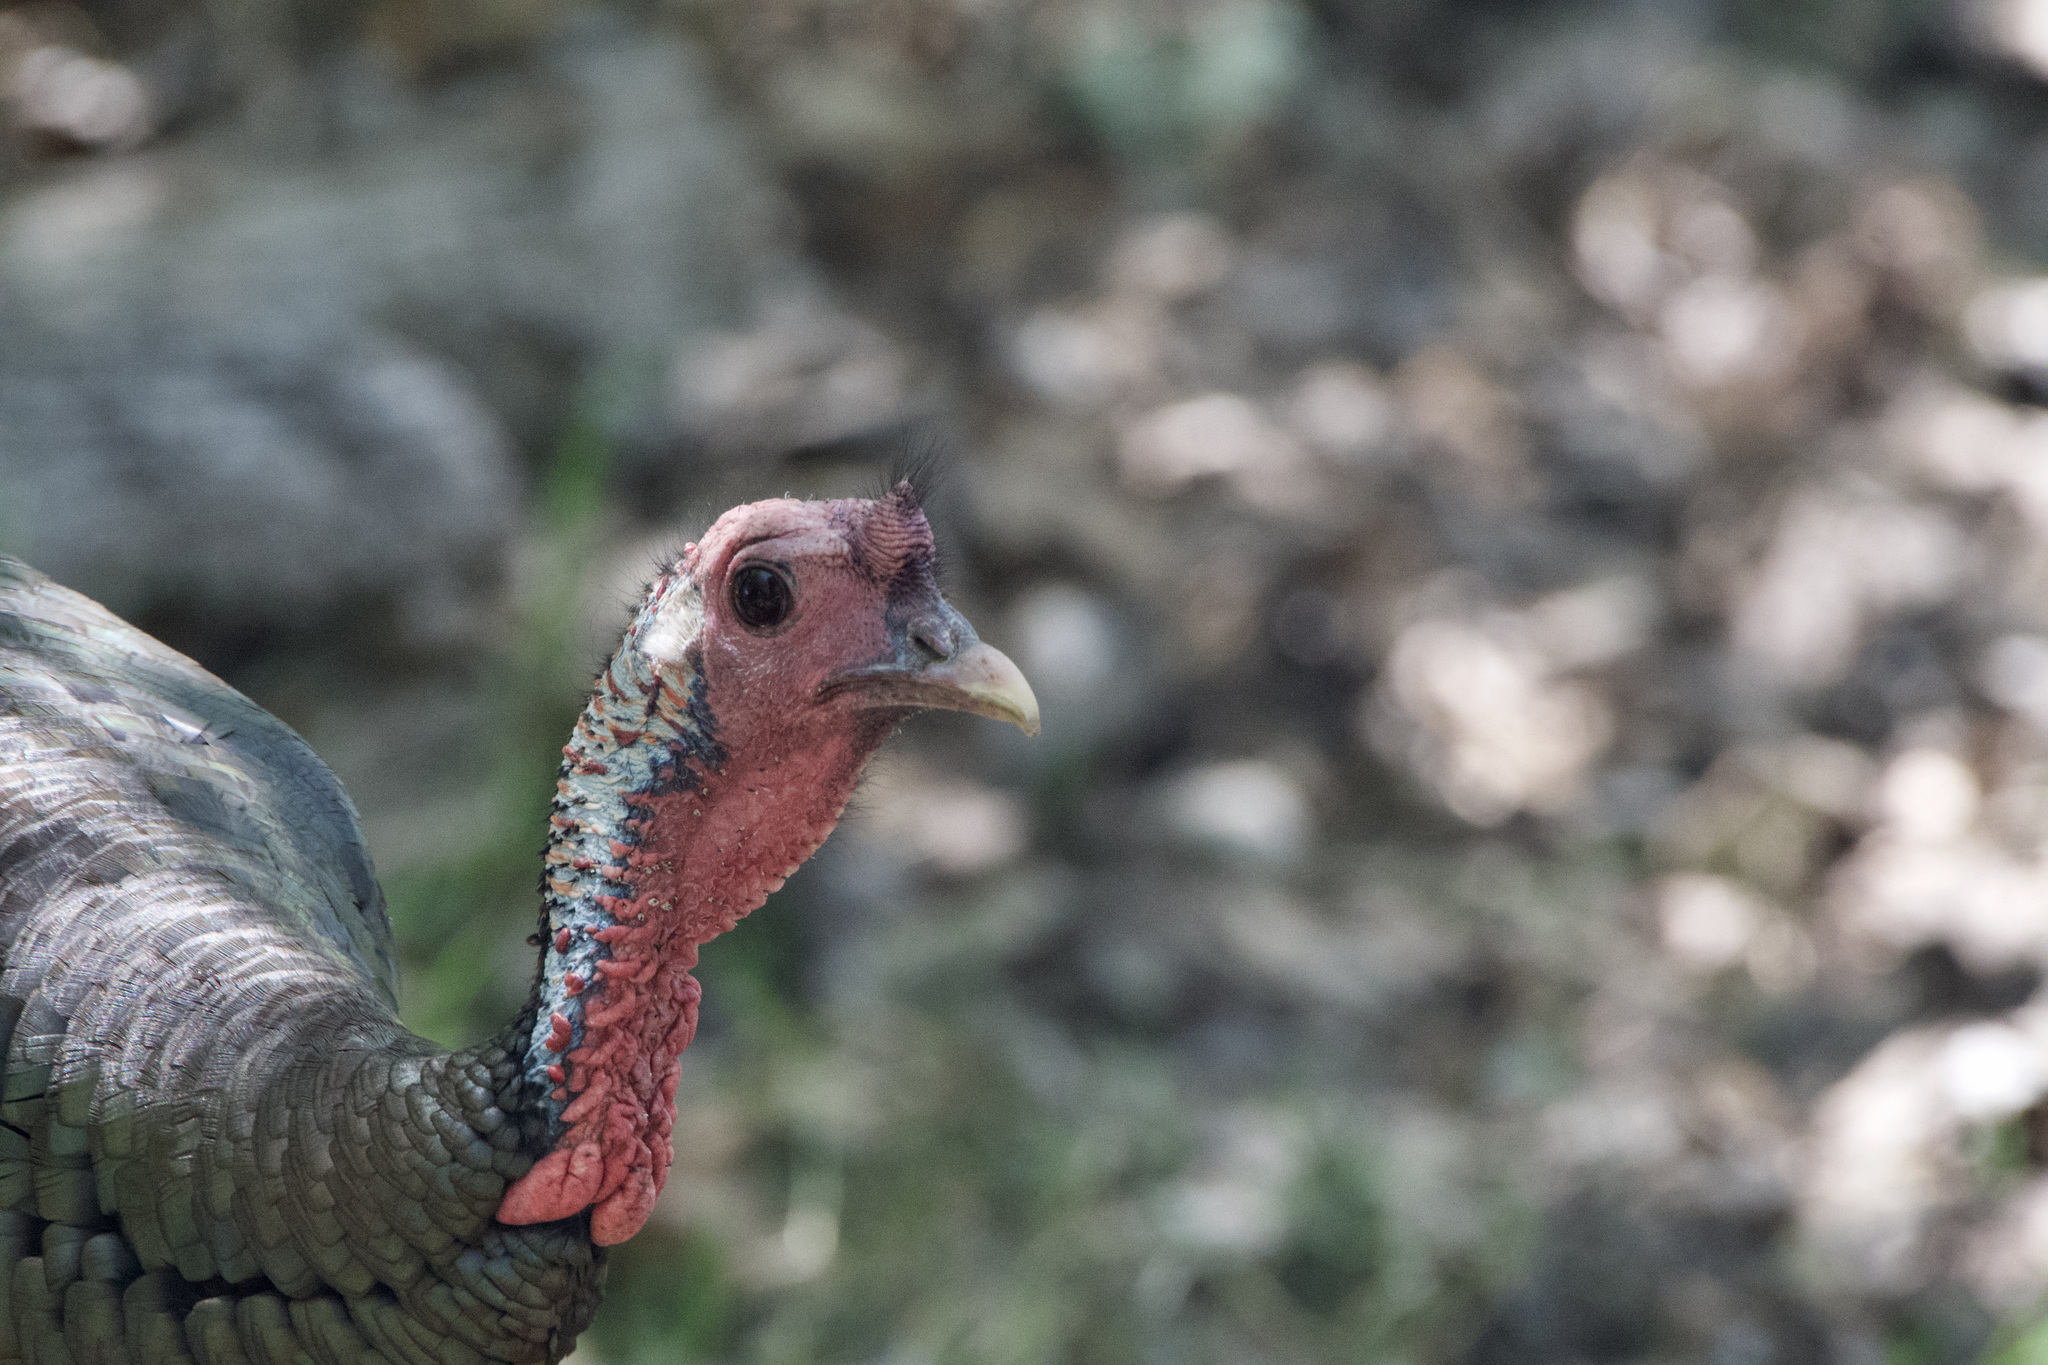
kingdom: Animalia
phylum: Chordata
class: Aves
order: Galliformes
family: Phasianidae
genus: Meleagris
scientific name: Meleagris gallopavo
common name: Wild turkey
